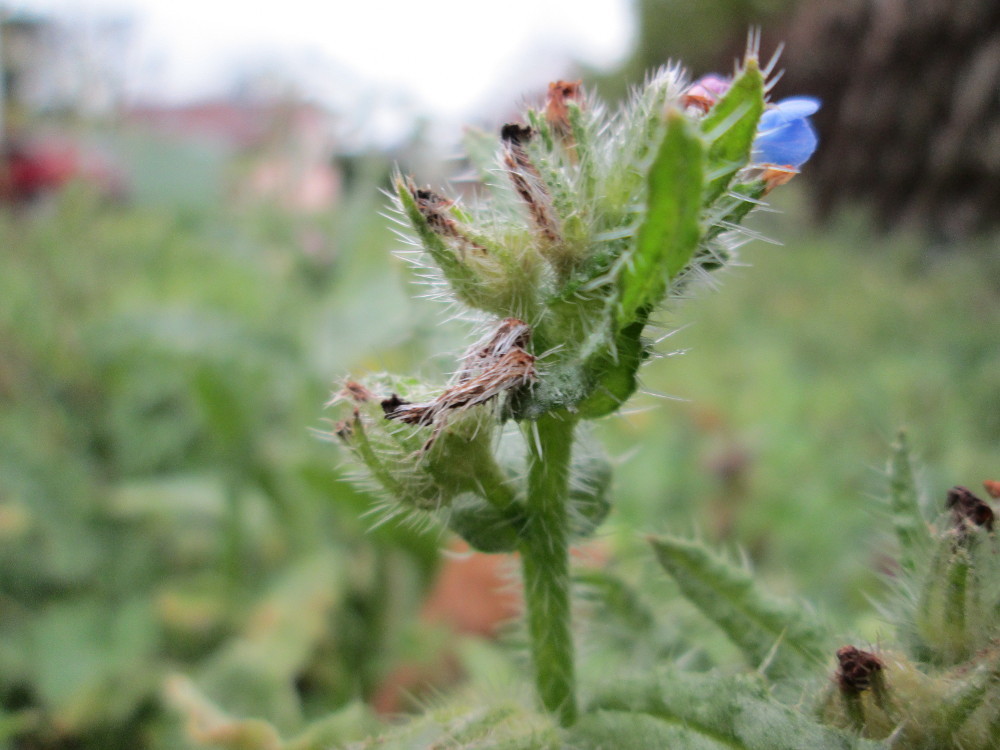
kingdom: Plantae
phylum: Tracheophyta
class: Magnoliopsida
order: Boraginales
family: Boraginaceae
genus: Lycopsis
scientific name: Lycopsis arvensis
